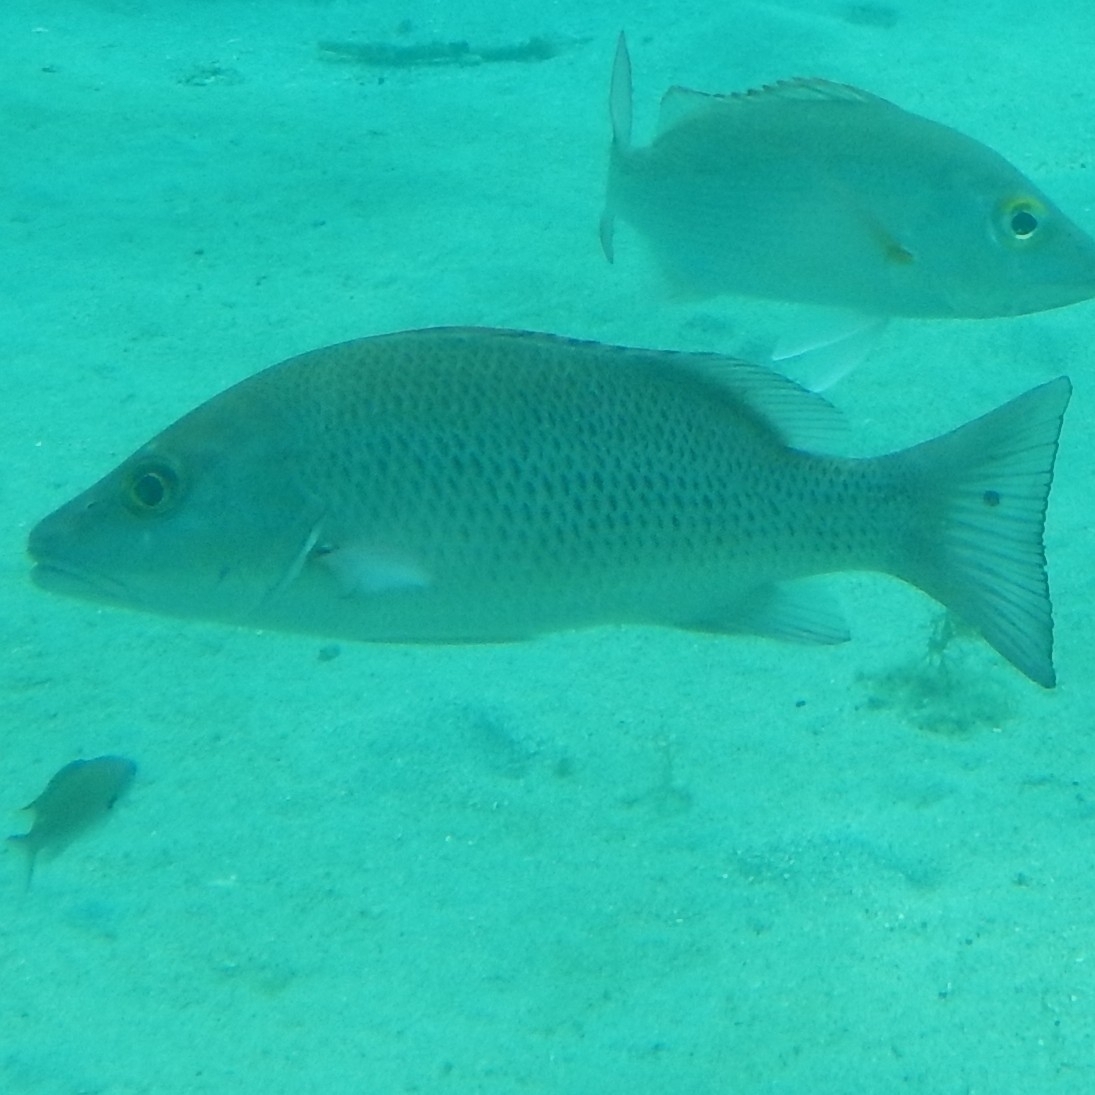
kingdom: Animalia
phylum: Chordata
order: Perciformes
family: Lutjanidae
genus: Lutjanus
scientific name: Lutjanus griseus
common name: Gray snapper
